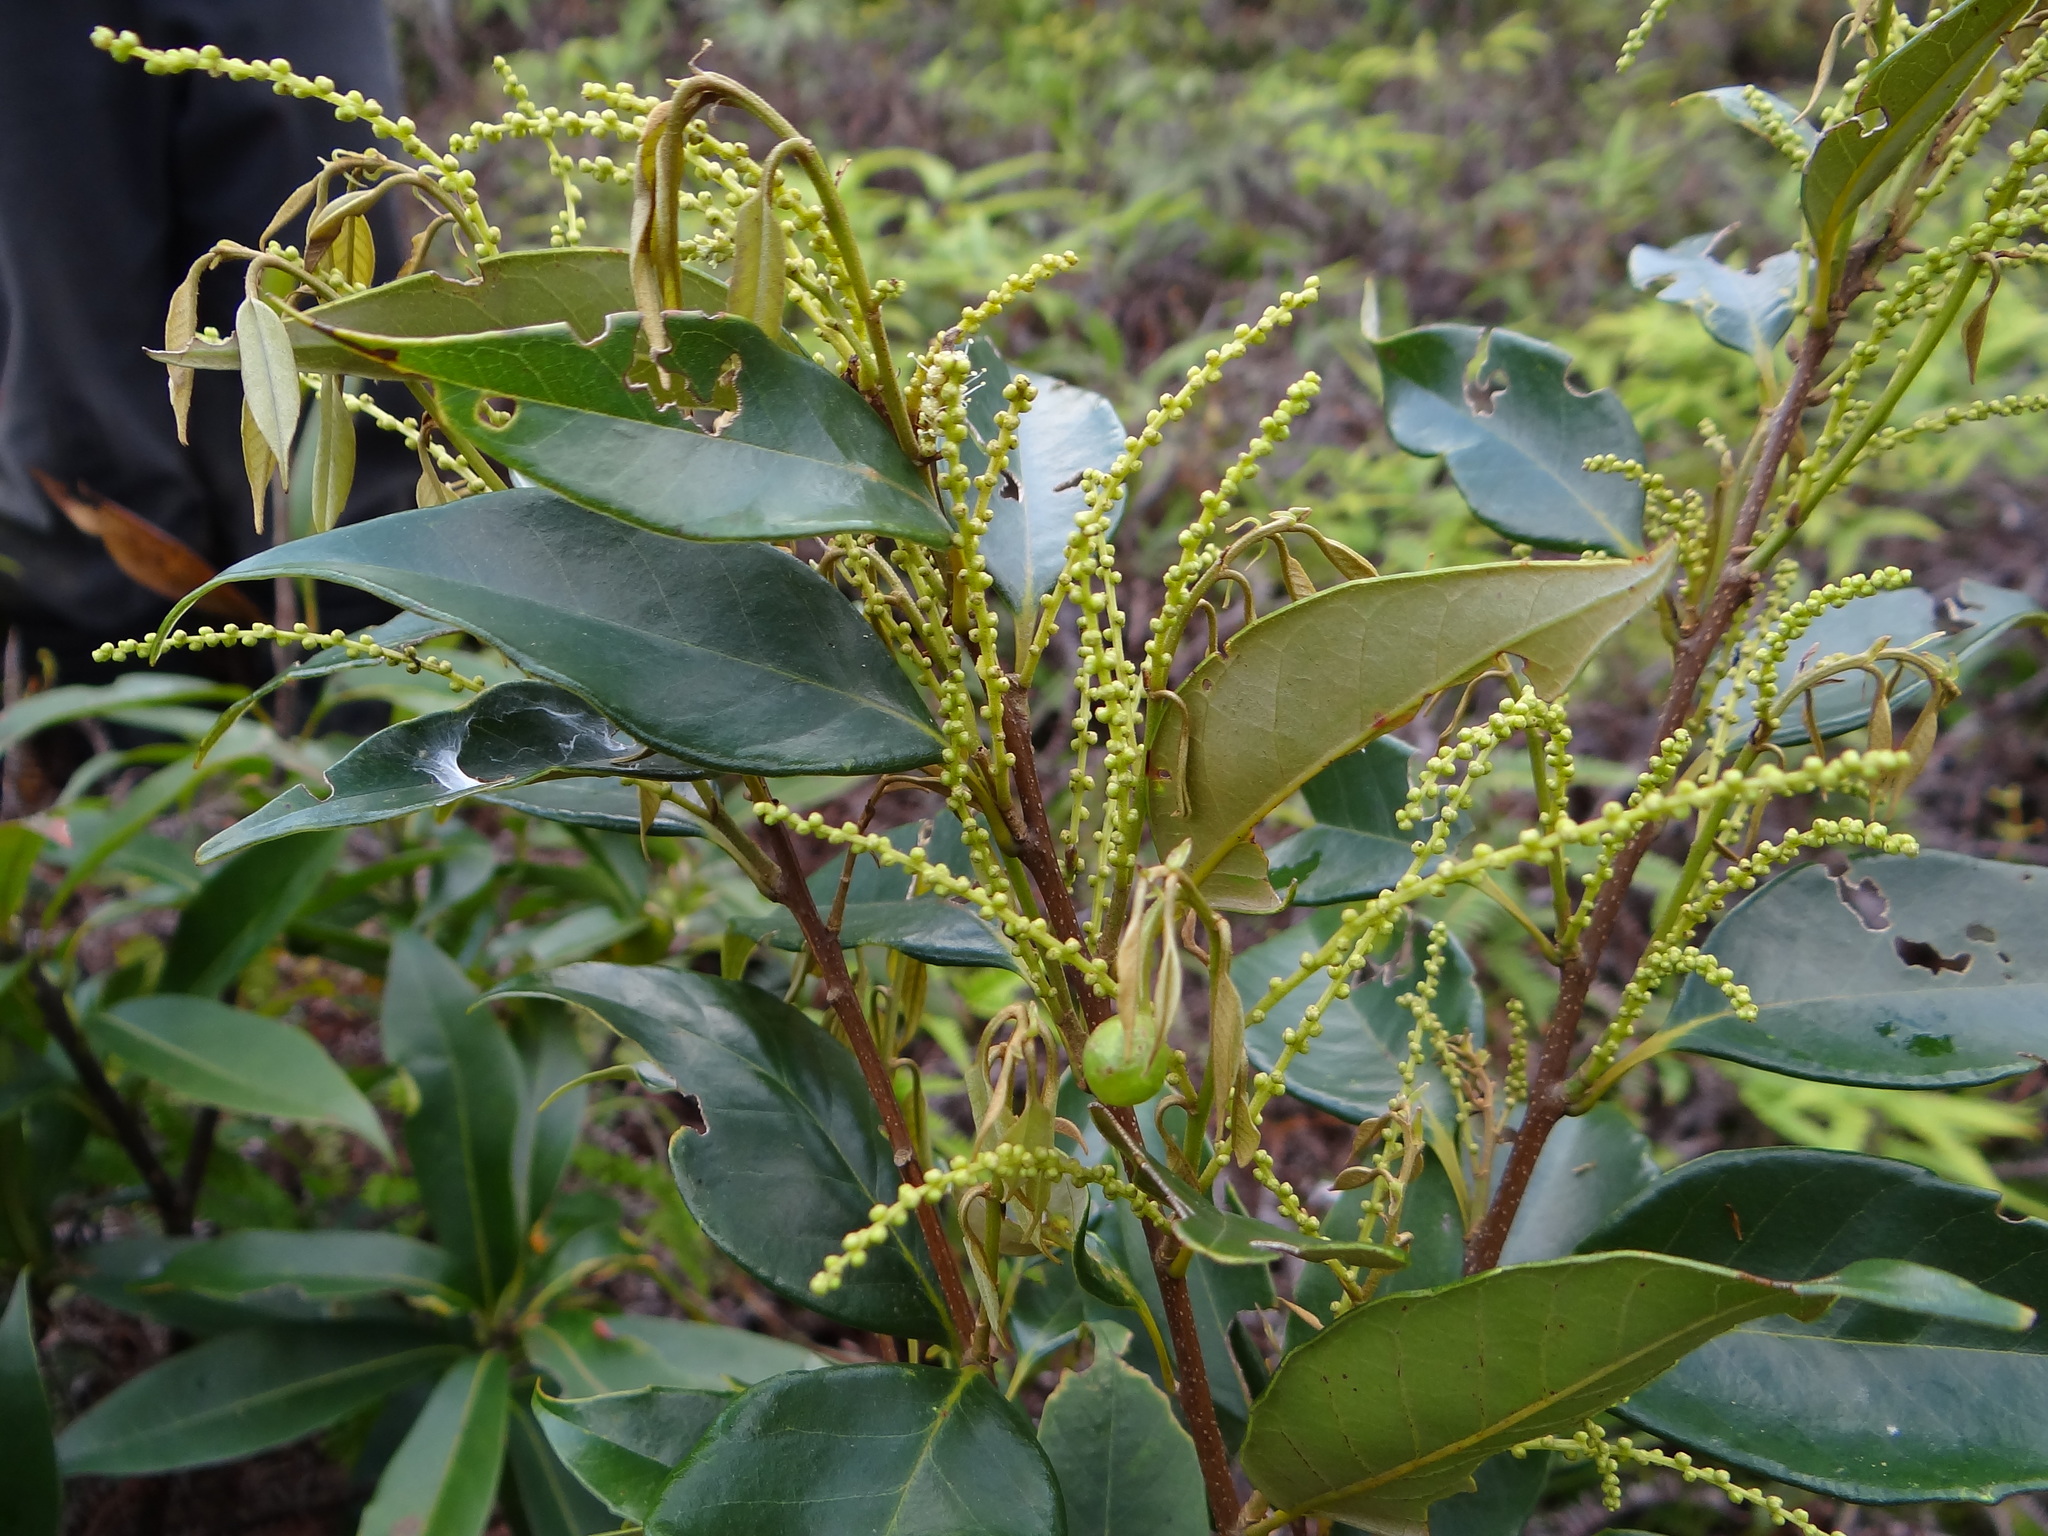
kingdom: Plantae
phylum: Tracheophyta
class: Magnoliopsida
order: Fagales
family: Fagaceae
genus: Castanopsis
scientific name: Castanopsis carlesii
